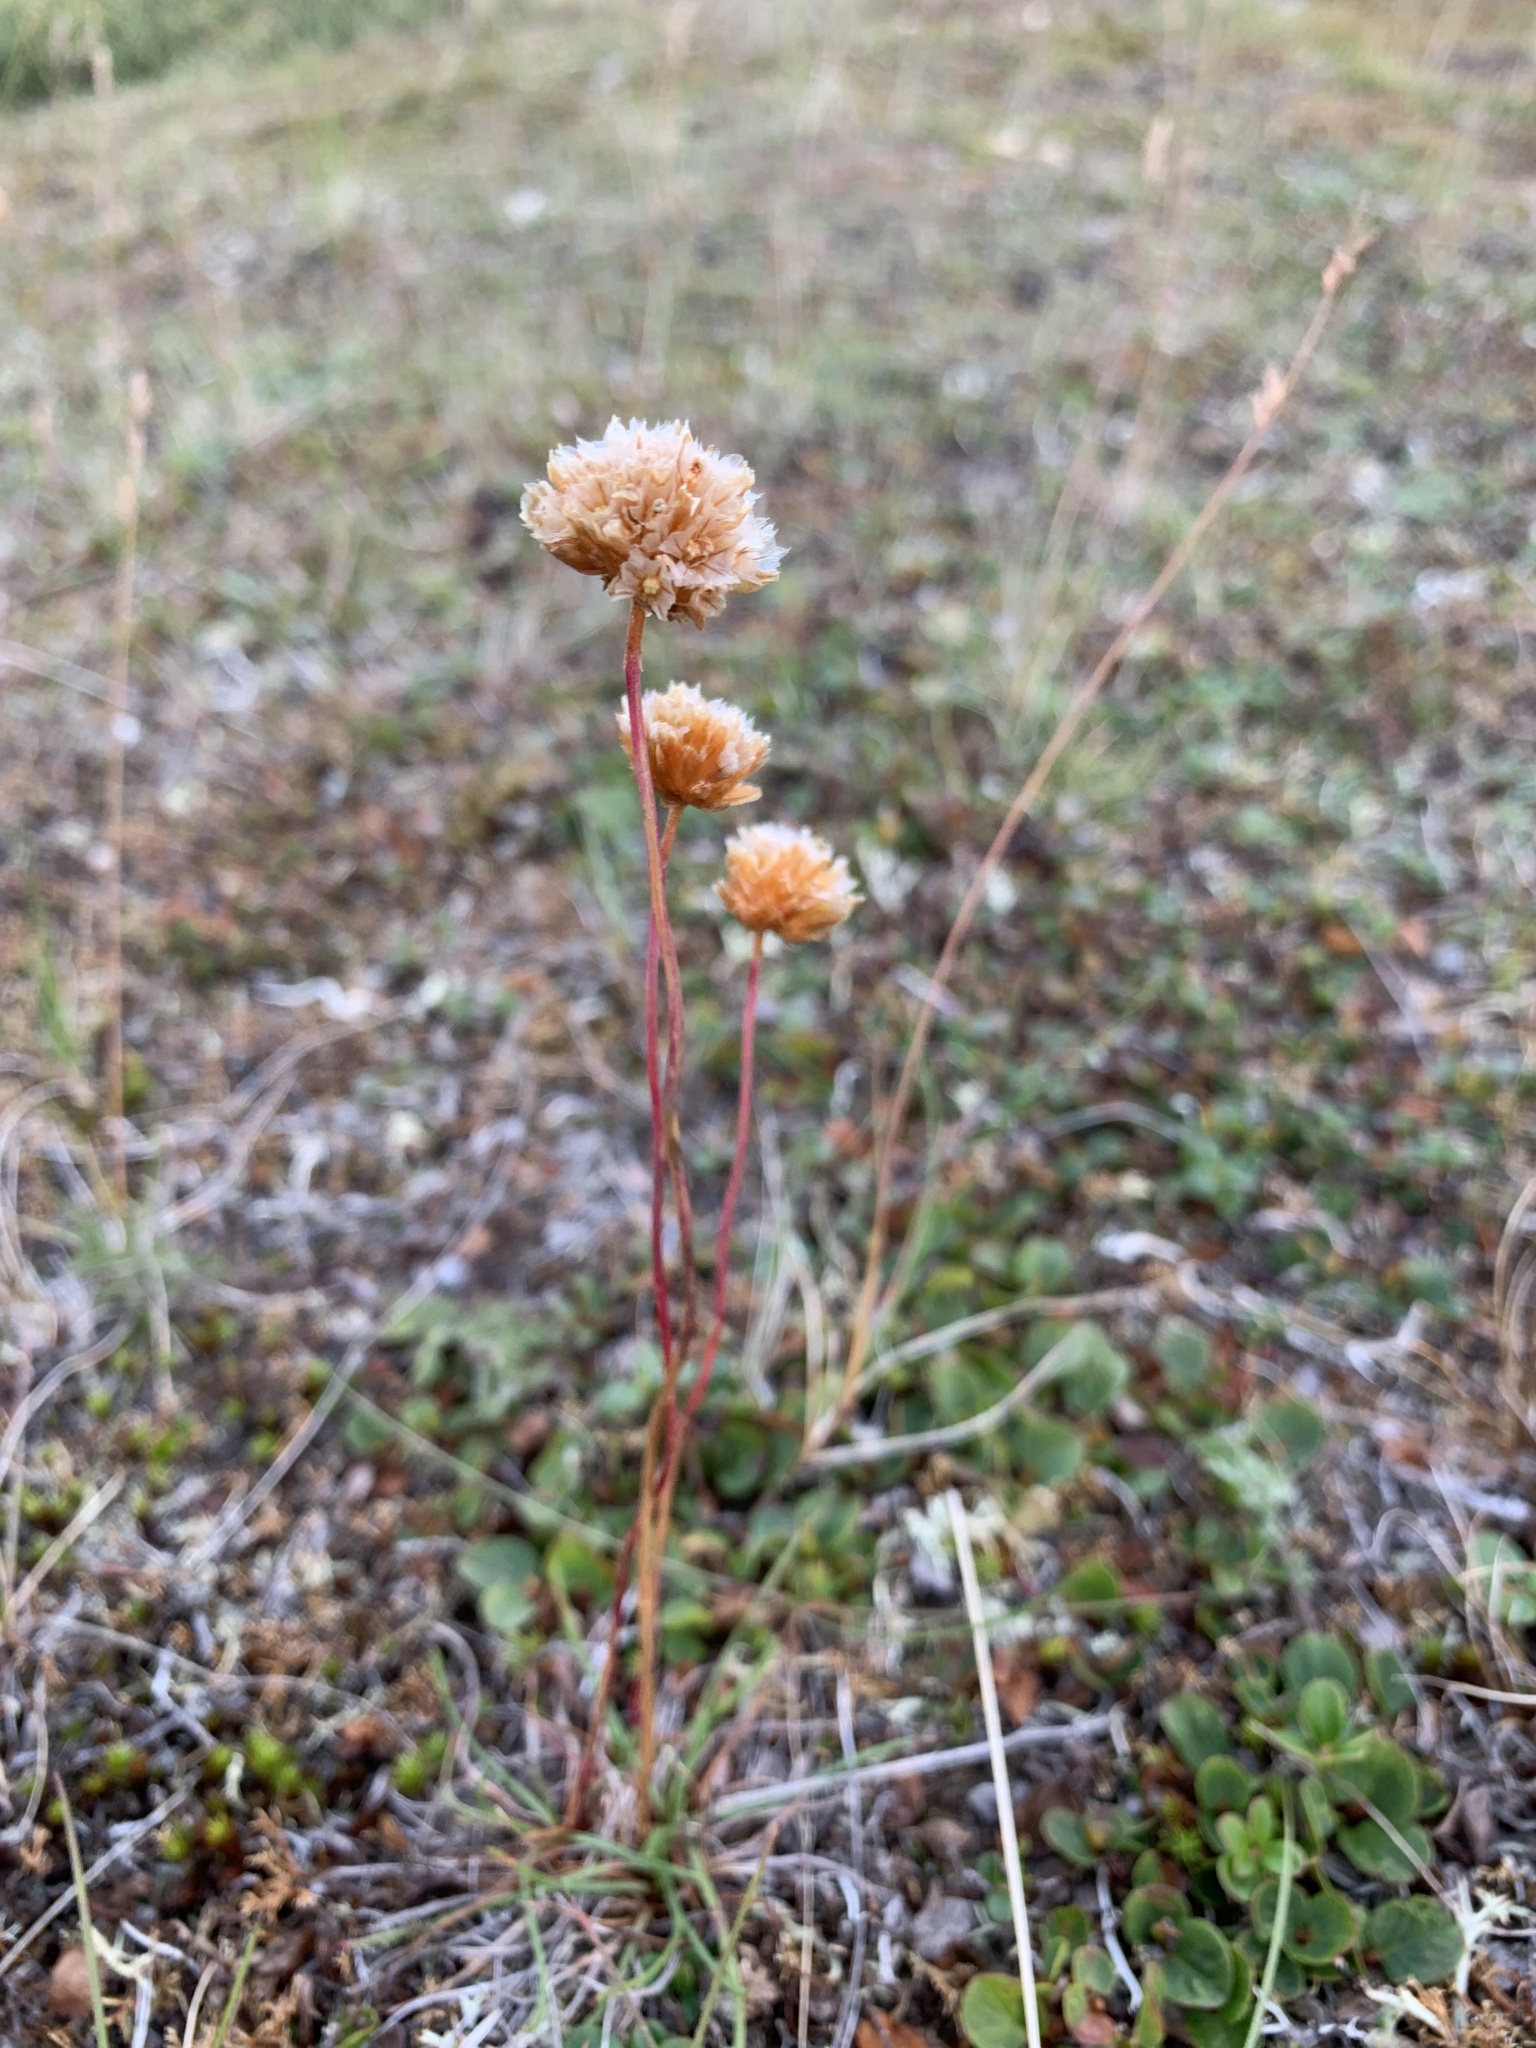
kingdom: Plantae
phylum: Tracheophyta
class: Magnoliopsida
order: Caryophyllales
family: Plumbaginaceae
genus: Armeria
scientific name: Armeria maritima
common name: Thrift
